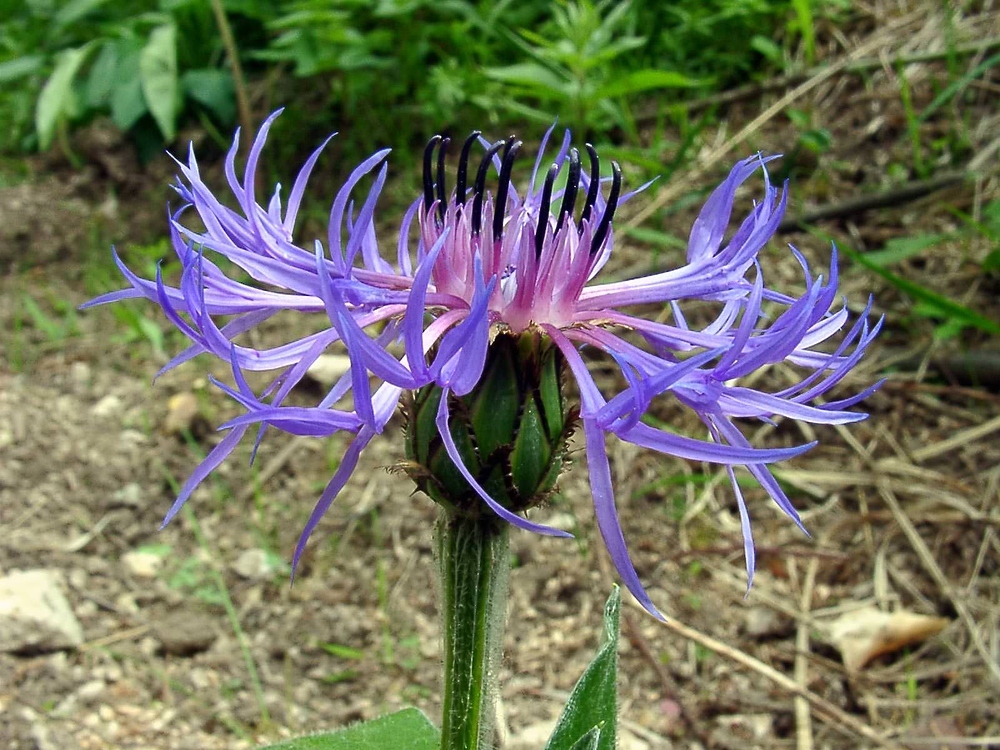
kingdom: Plantae
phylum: Tracheophyta
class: Magnoliopsida
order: Asterales
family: Asteraceae
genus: Centaurea
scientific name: Centaurea montana
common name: Perennial cornflower
